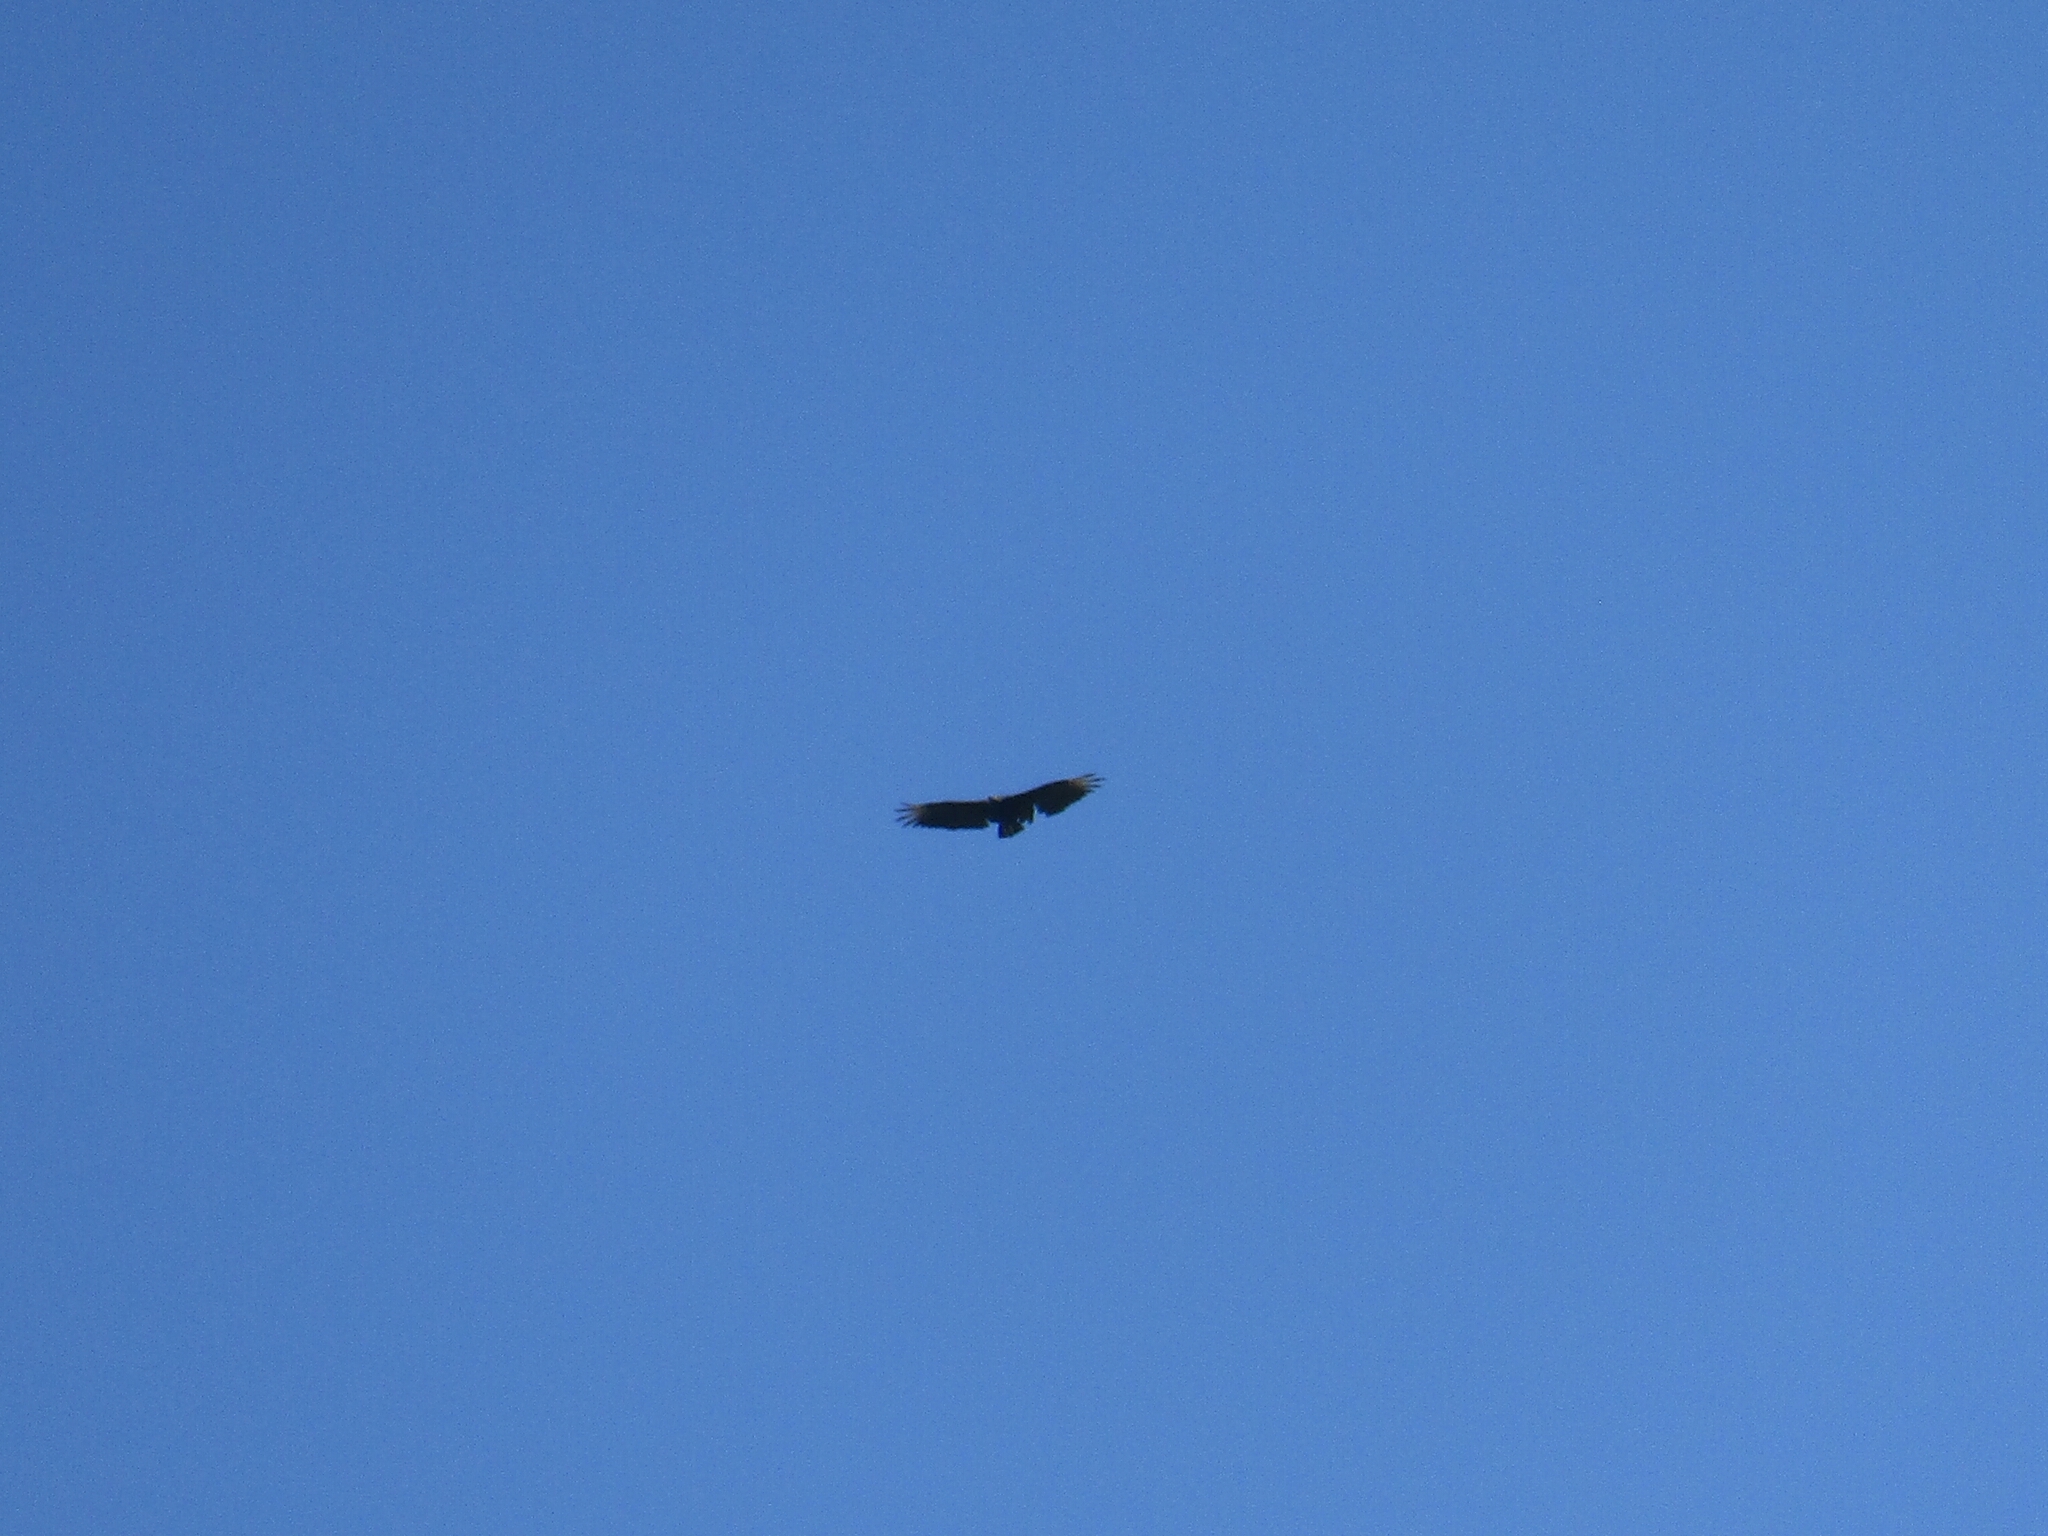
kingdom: Animalia
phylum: Chordata
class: Aves
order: Accipitriformes
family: Cathartidae
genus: Coragyps
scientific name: Coragyps atratus
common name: Black vulture
